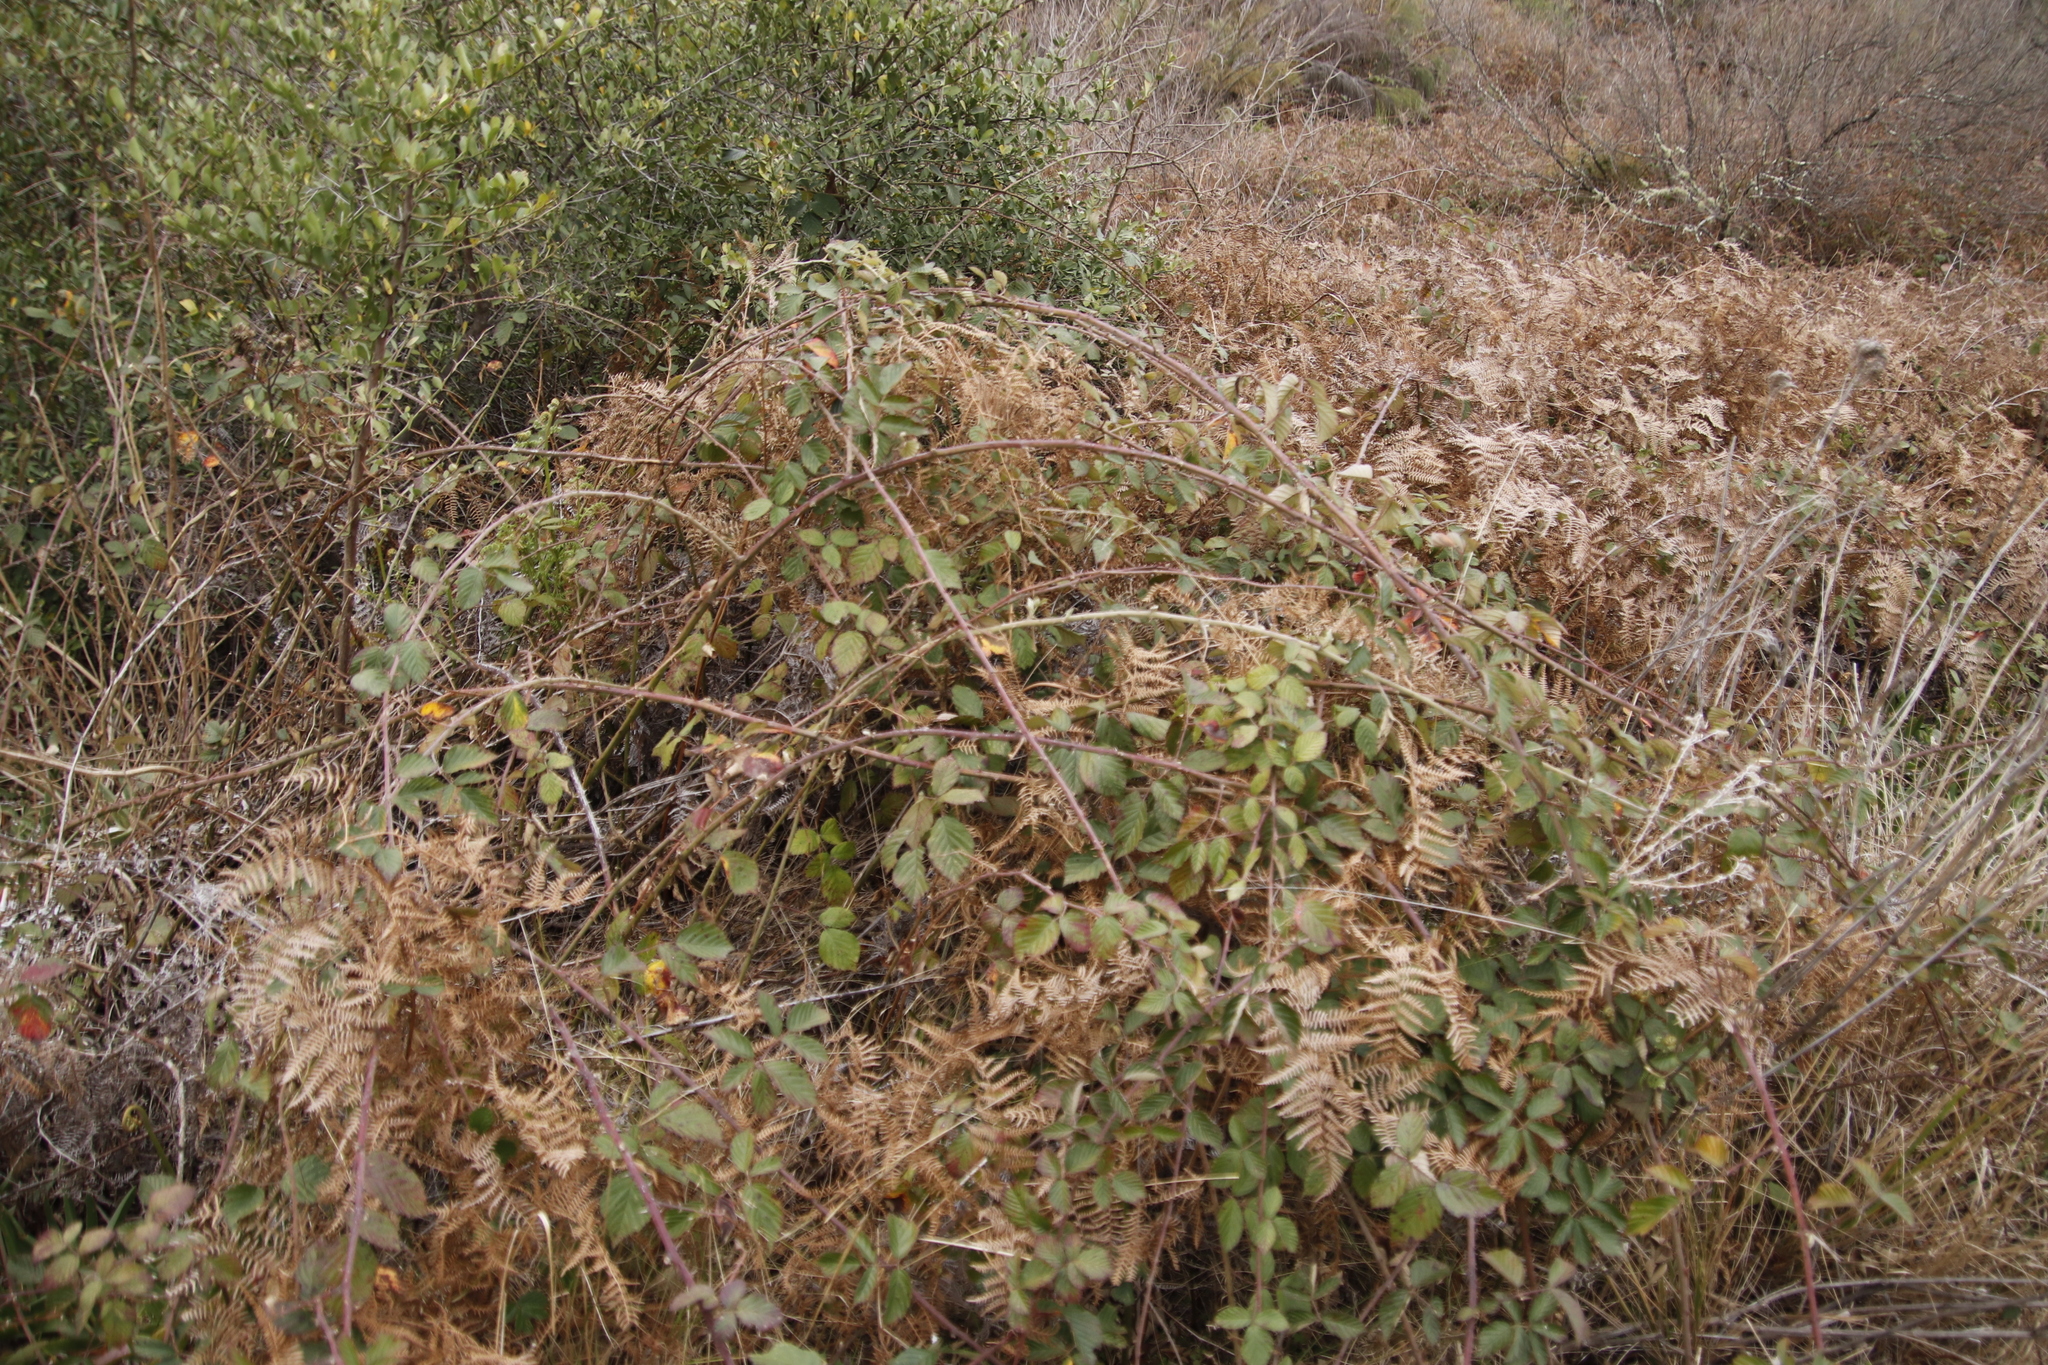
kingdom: Plantae
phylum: Tracheophyta
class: Magnoliopsida
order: Rosales
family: Rosaceae
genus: Rubus
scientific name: Rubus rigidus
